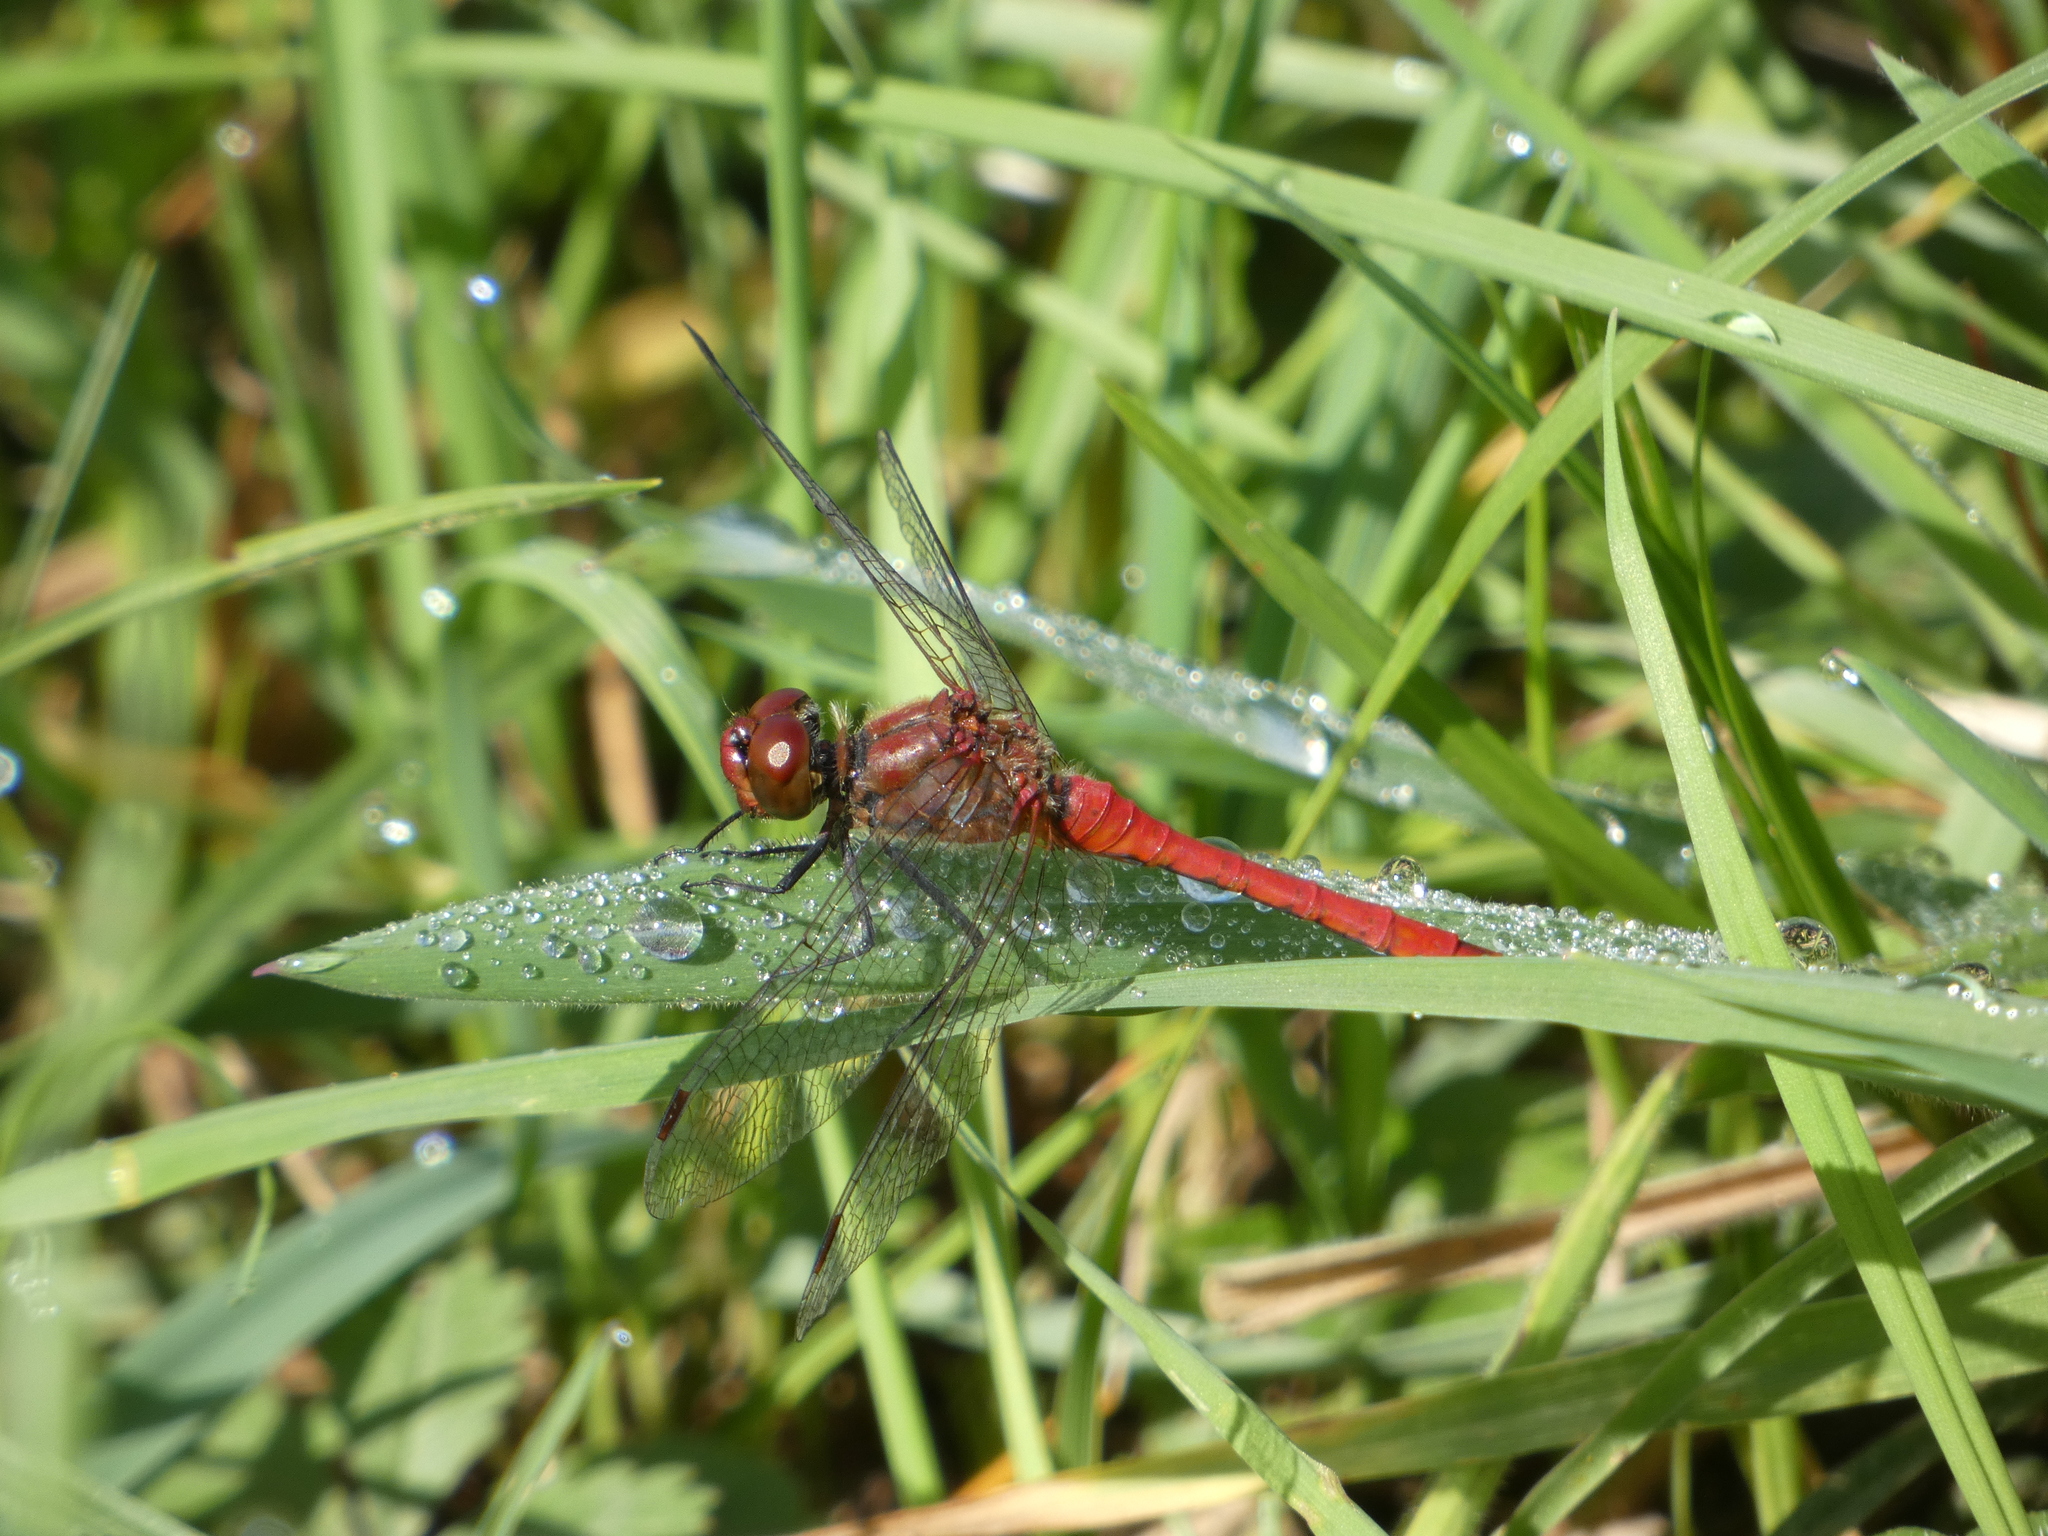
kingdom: Animalia
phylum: Arthropoda
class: Insecta
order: Odonata
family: Libellulidae
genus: Sympetrum
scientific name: Sympetrum sanguineum
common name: Ruddy darter
